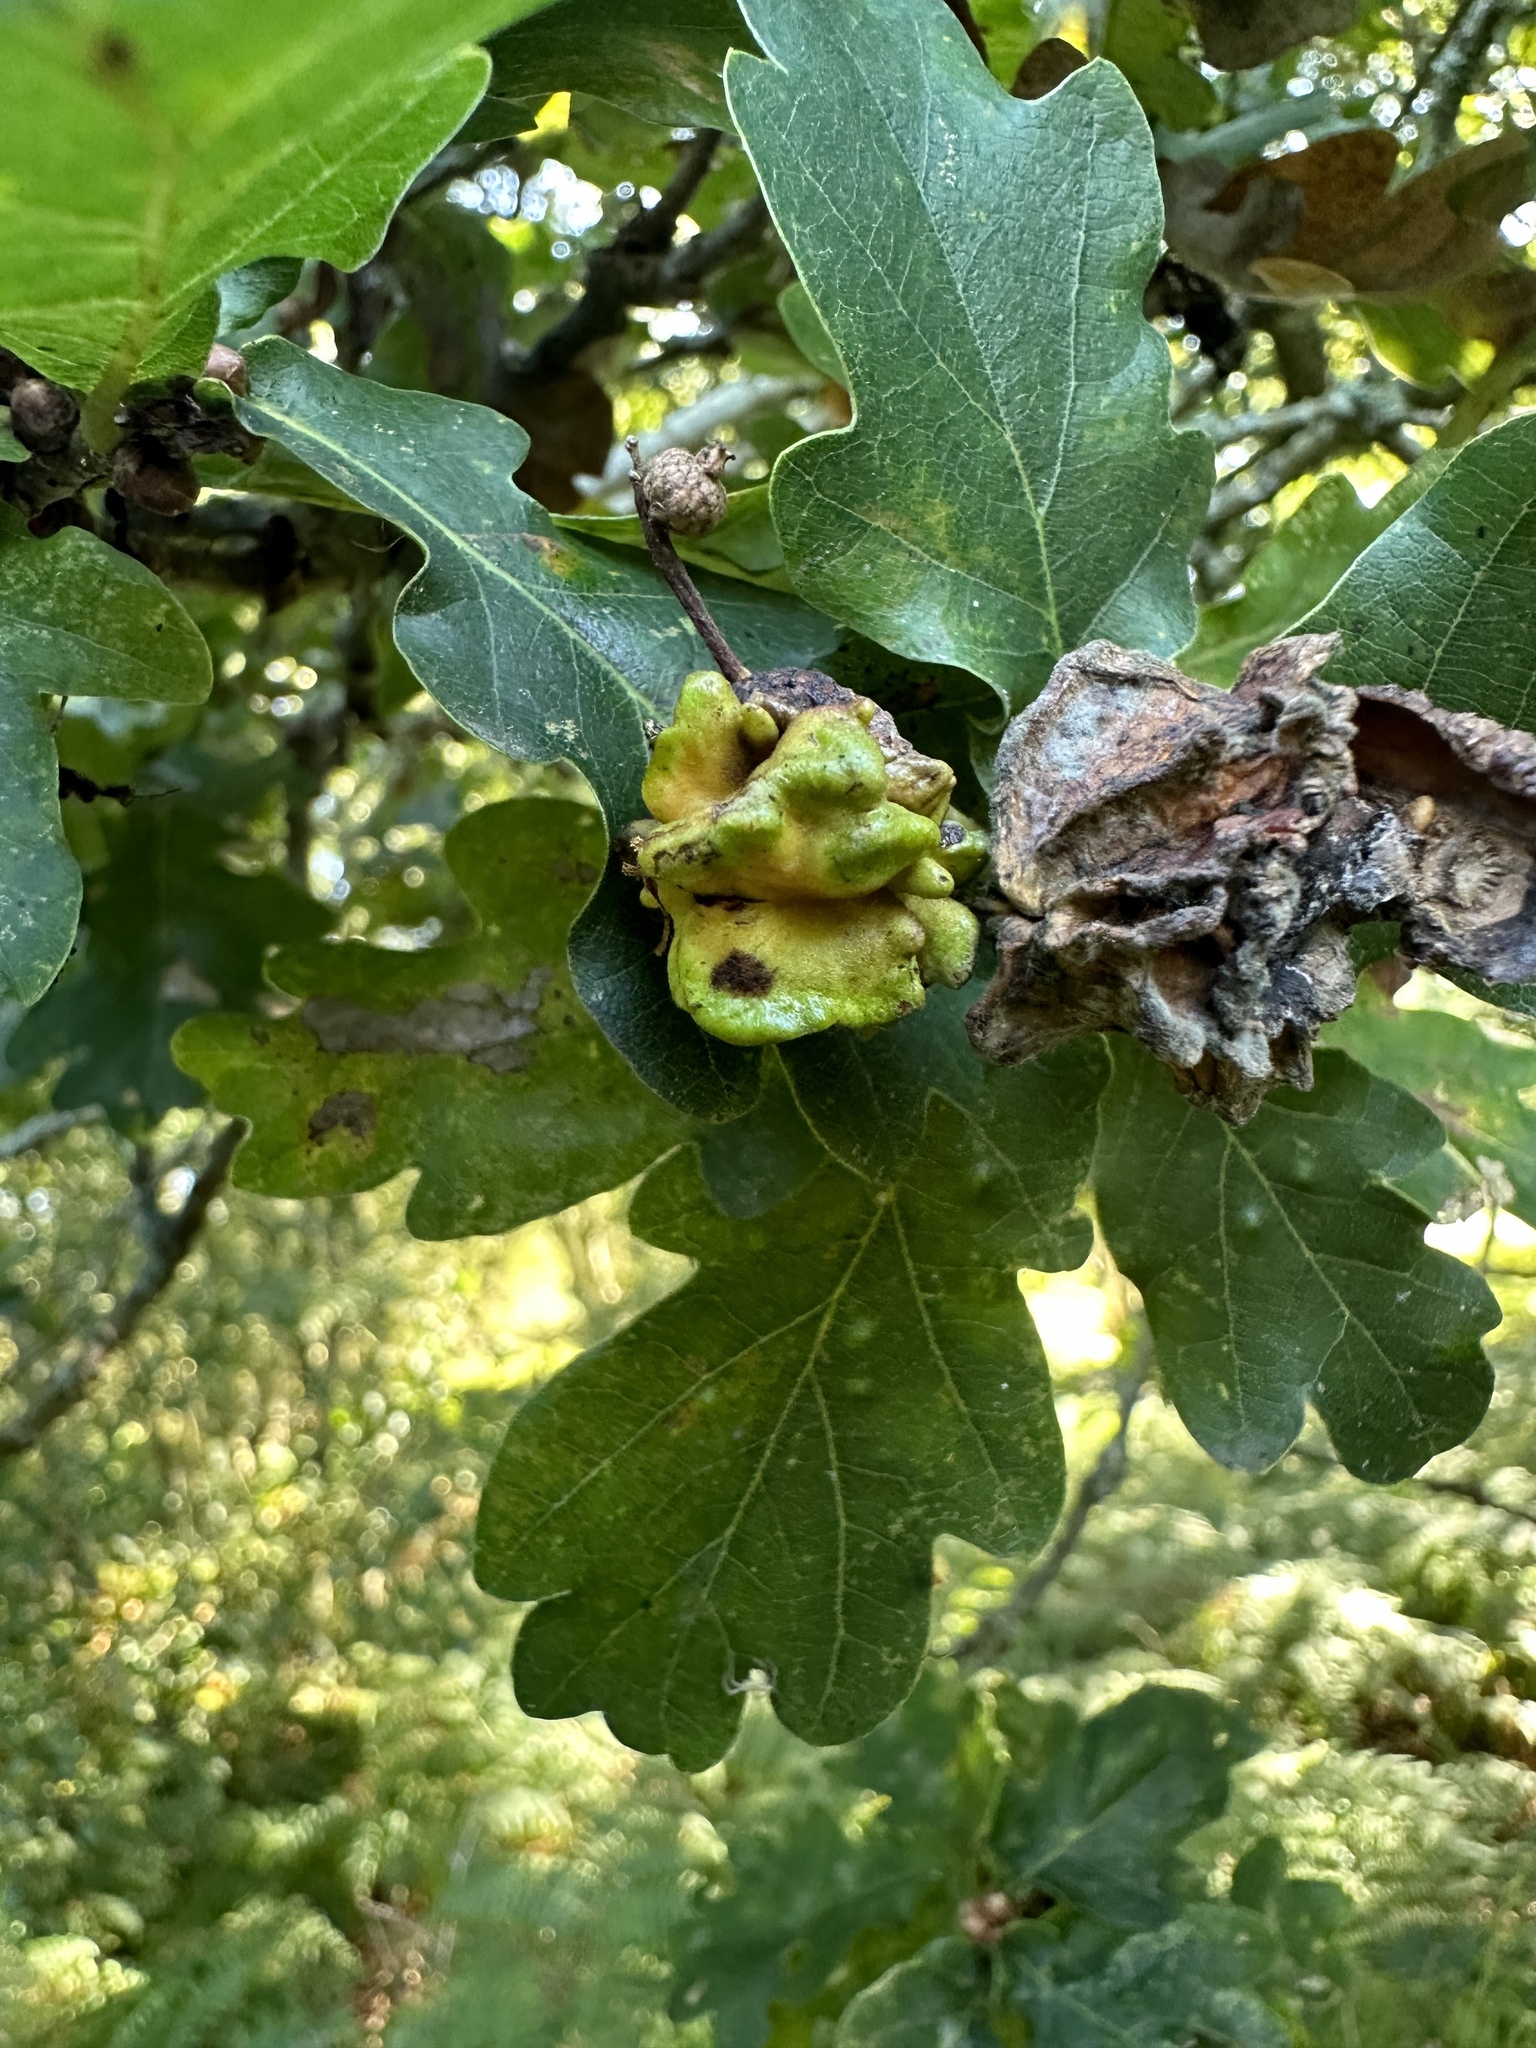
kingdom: Animalia
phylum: Arthropoda
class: Insecta
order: Hymenoptera
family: Cynipidae
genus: Andricus
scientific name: Andricus quercuscalicis
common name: Knopper gall
